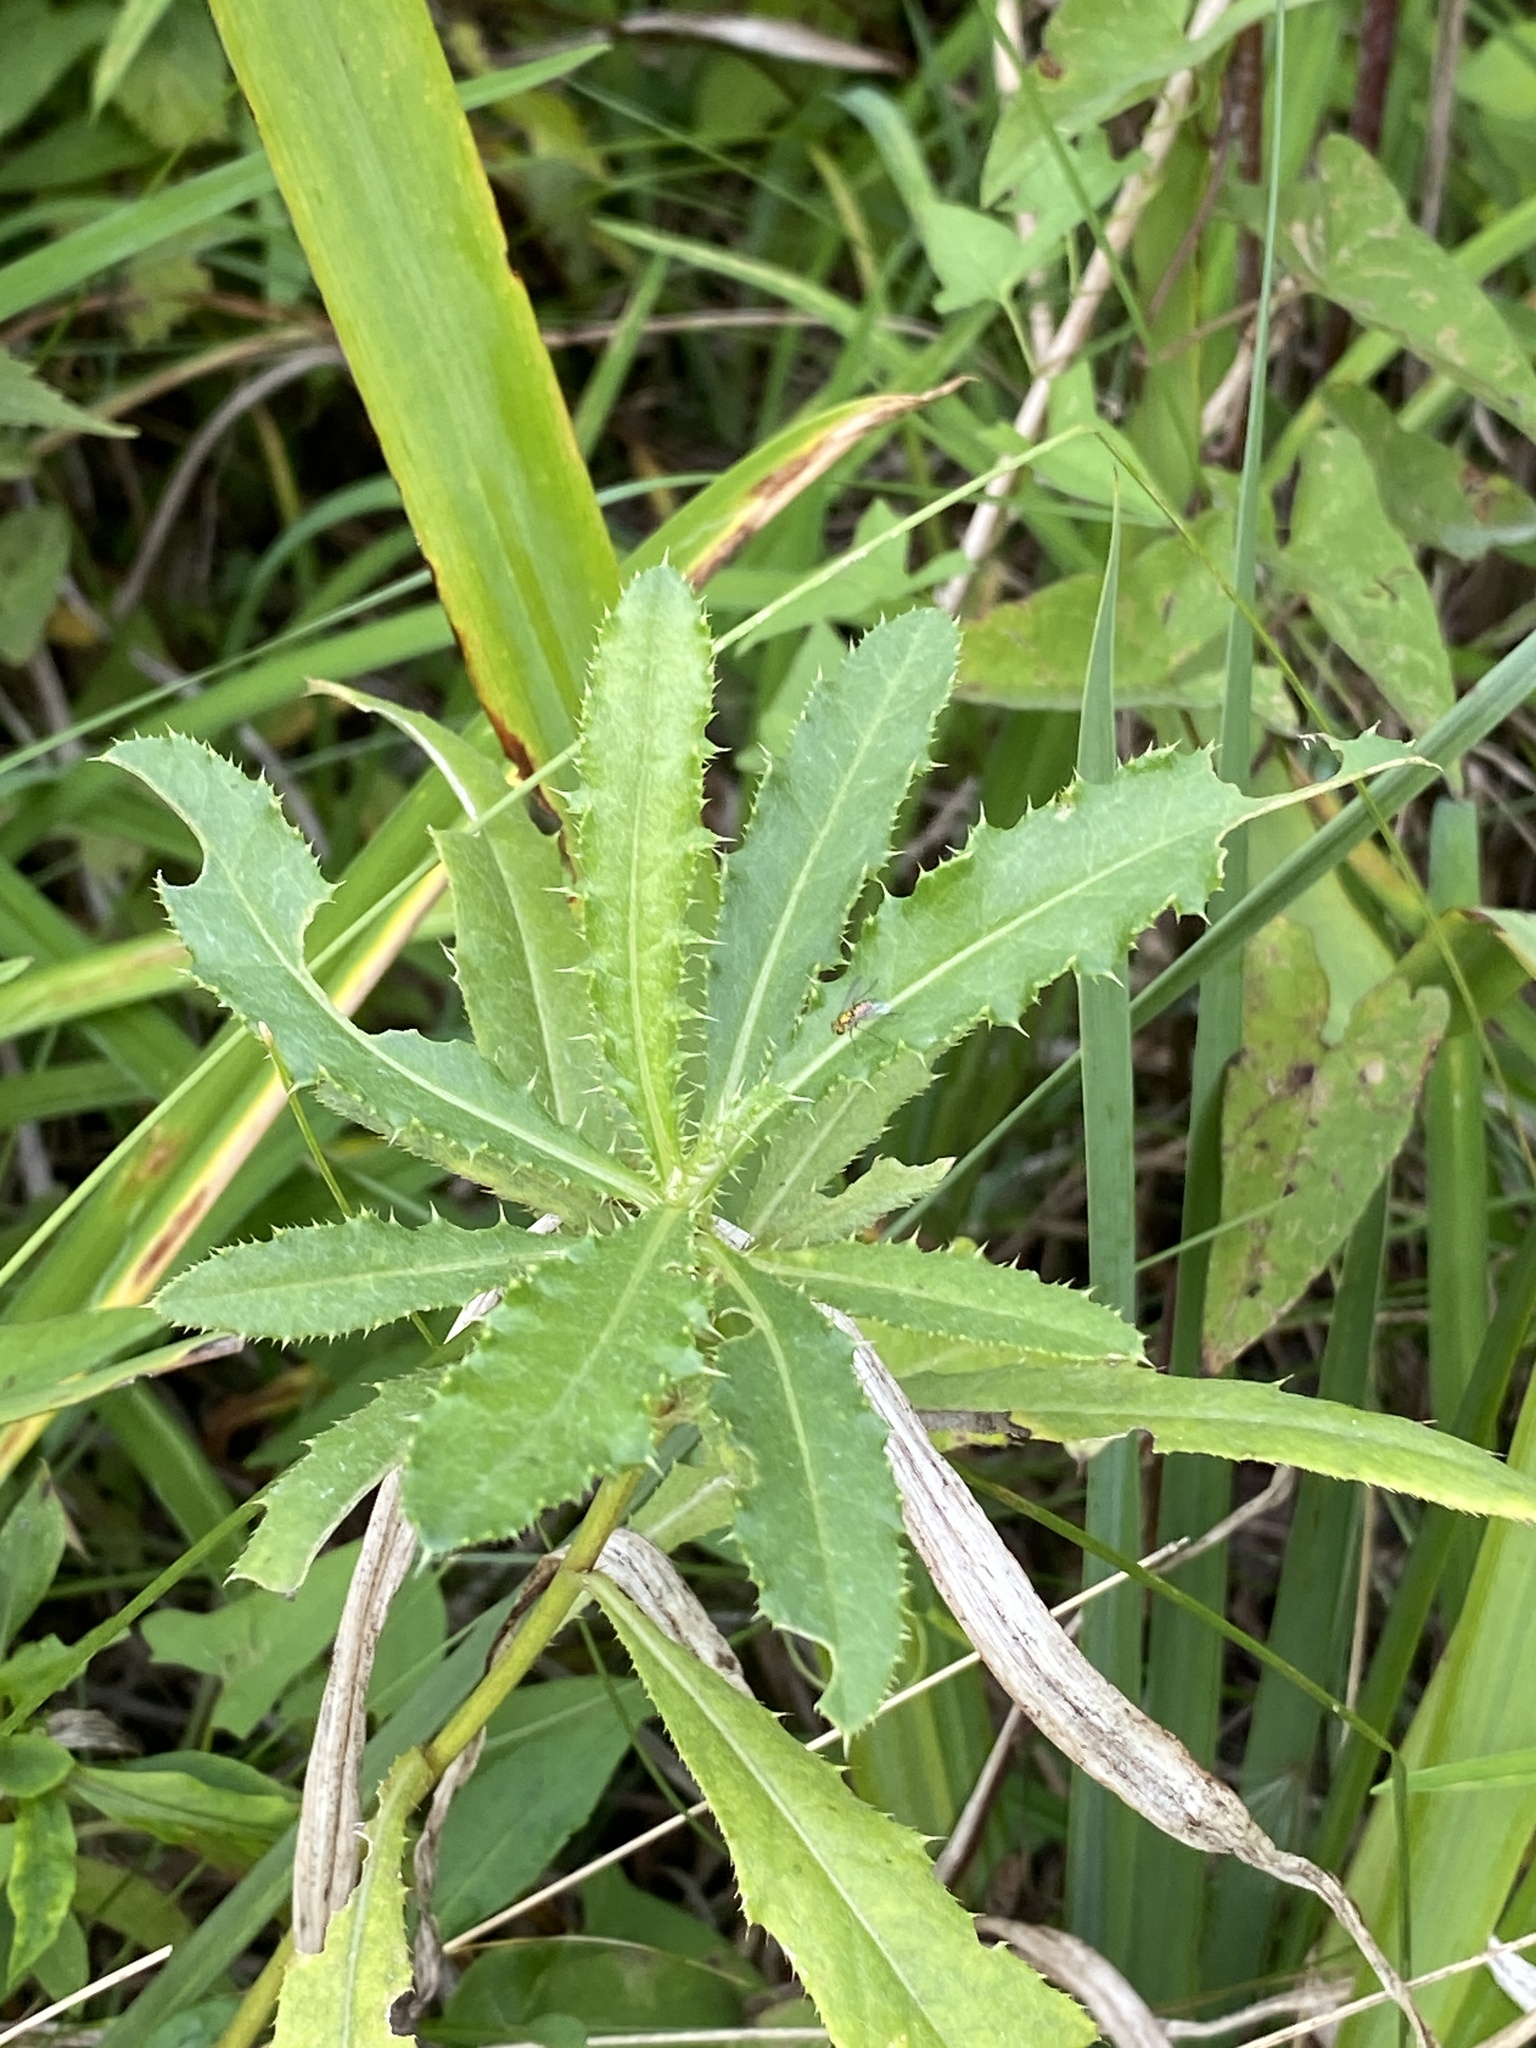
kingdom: Plantae
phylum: Tracheophyta
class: Magnoliopsida
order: Asterales
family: Asteraceae
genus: Cirsium
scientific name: Cirsium arvense
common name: Creeping thistle
